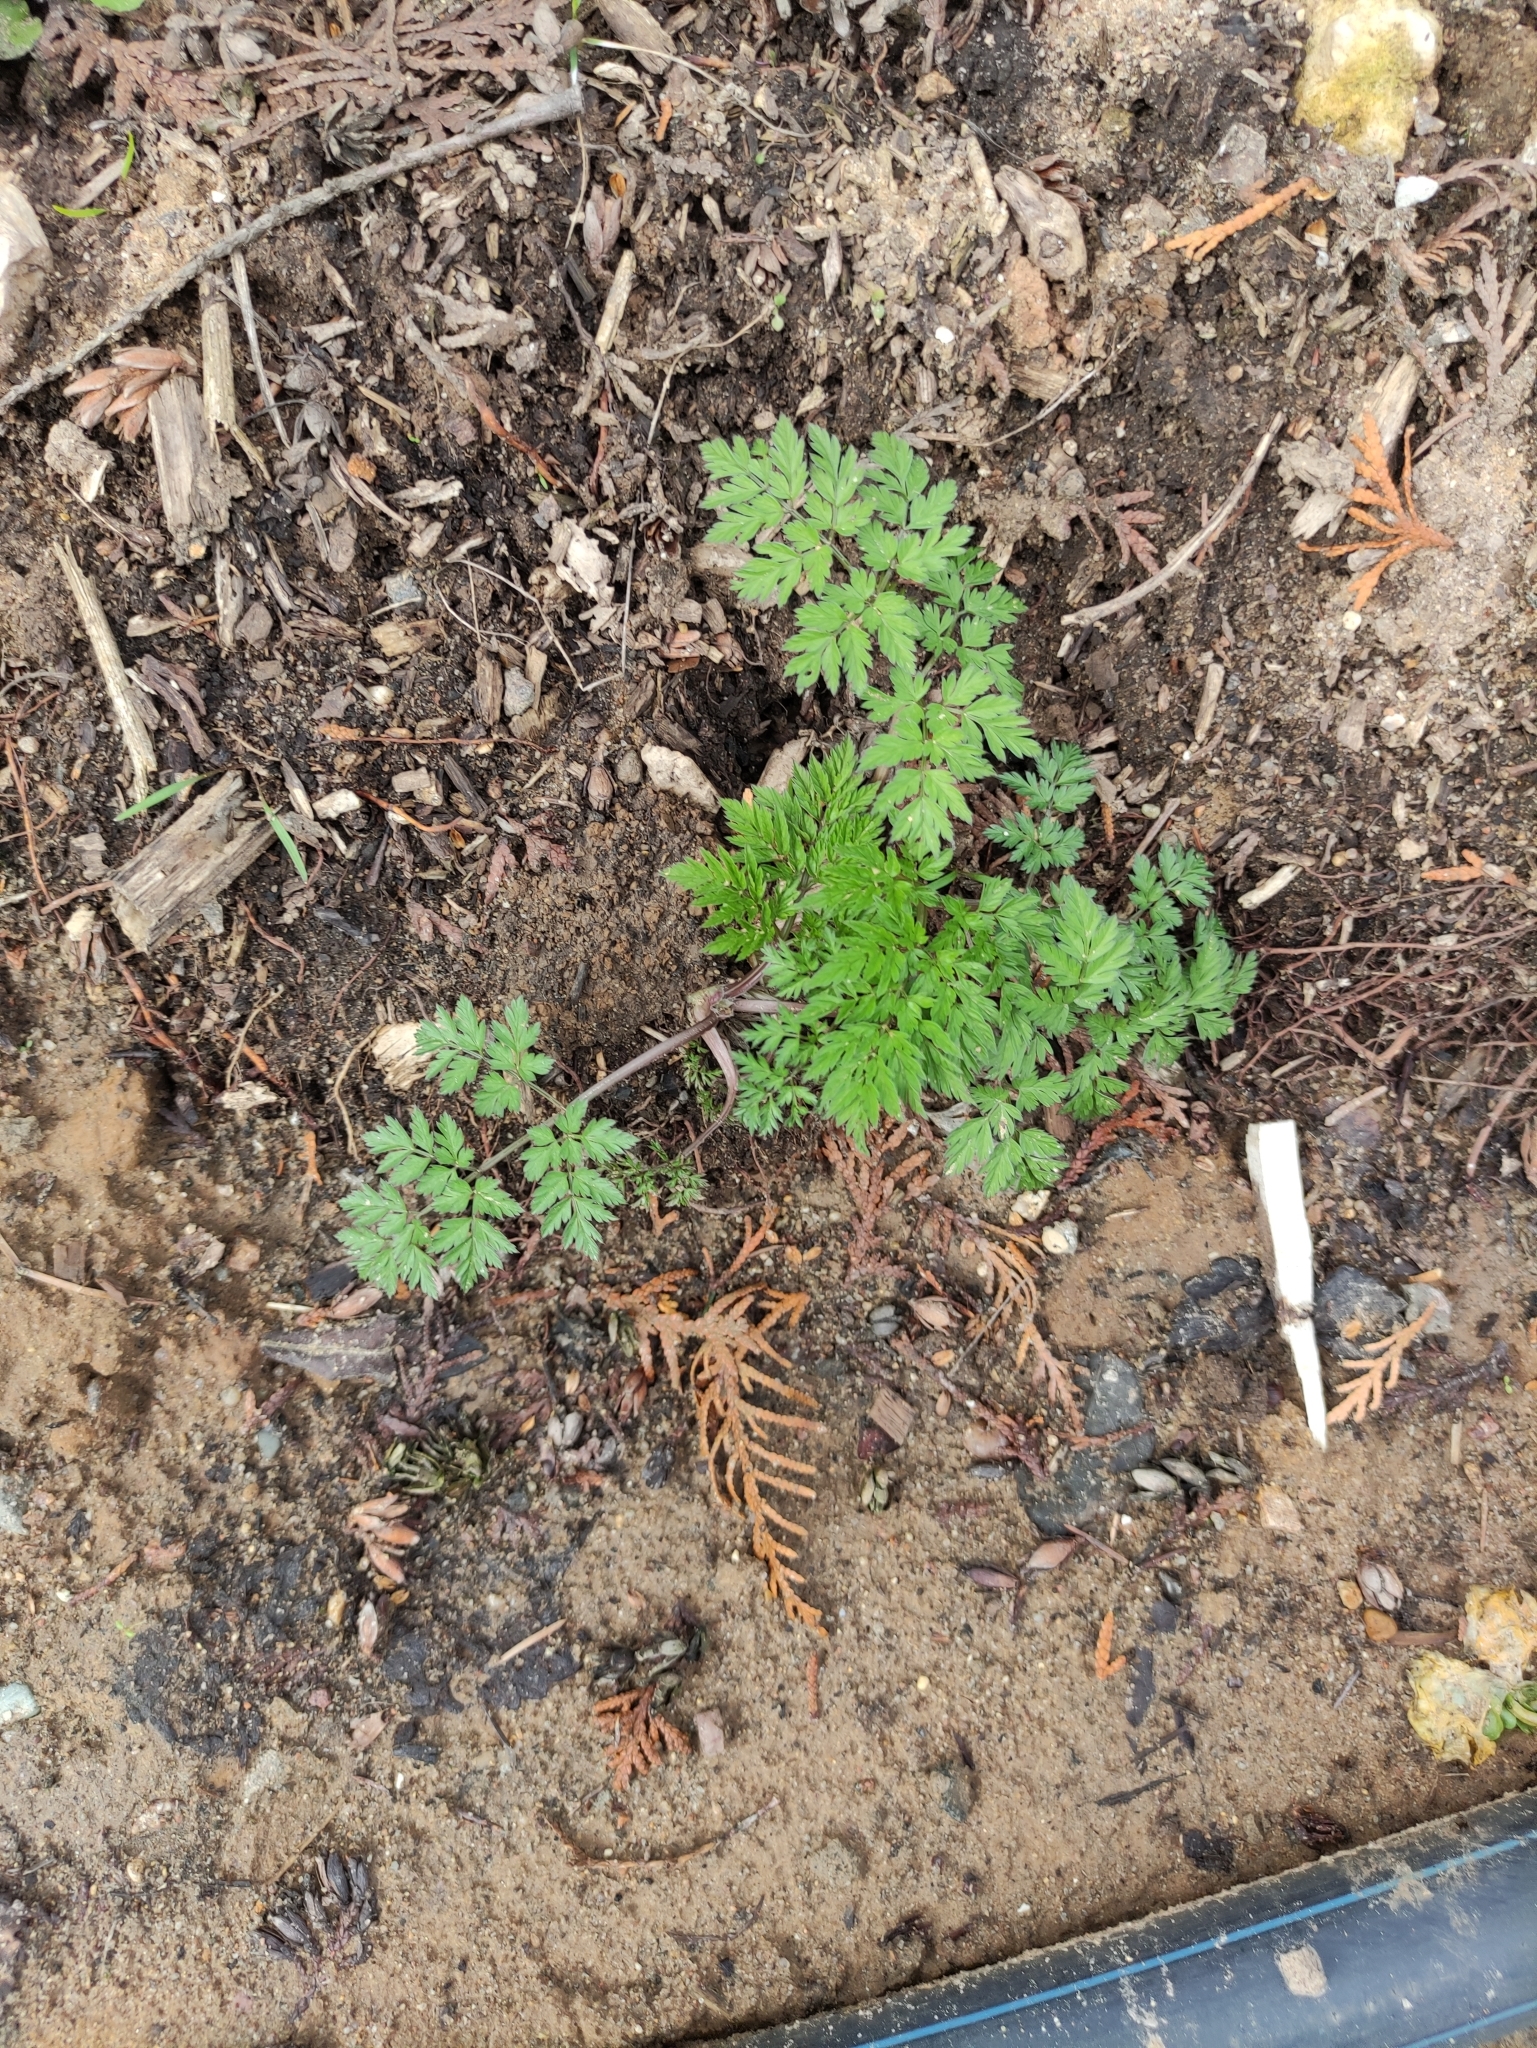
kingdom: Plantae
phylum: Tracheophyta
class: Magnoliopsida
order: Apiales
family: Apiaceae
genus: Anthriscus
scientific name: Anthriscus sylvestris
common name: Cow parsley
